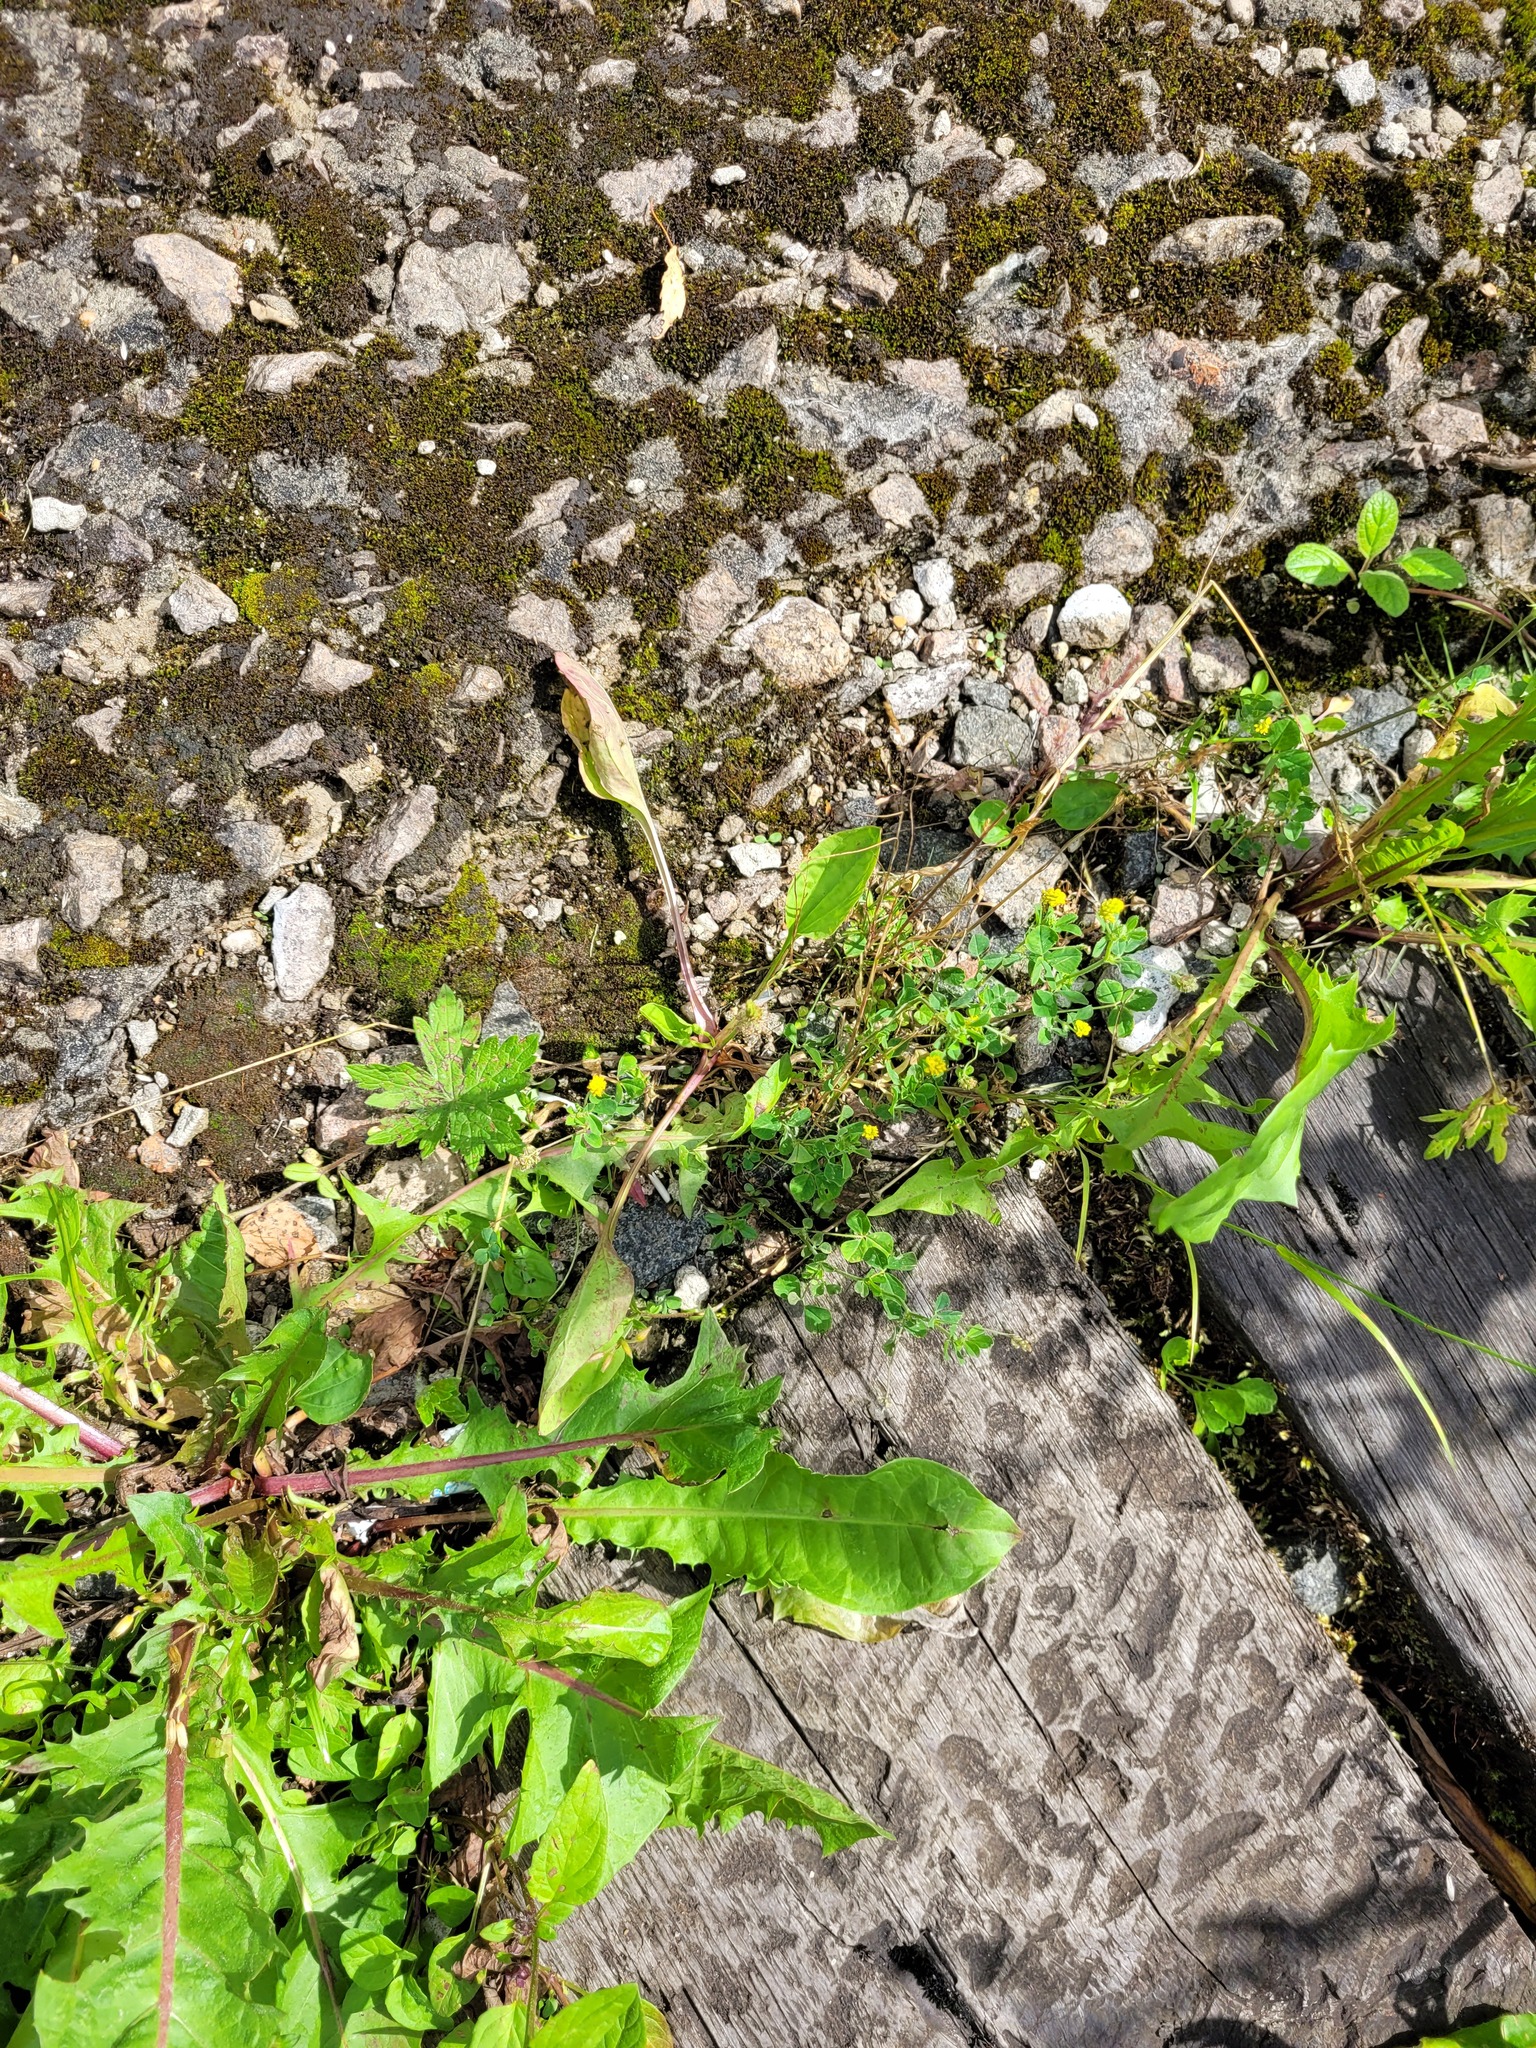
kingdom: Plantae
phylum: Tracheophyta
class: Magnoliopsida
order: Lamiales
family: Plantaginaceae
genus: Plantago
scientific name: Plantago major
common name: Common plantain
